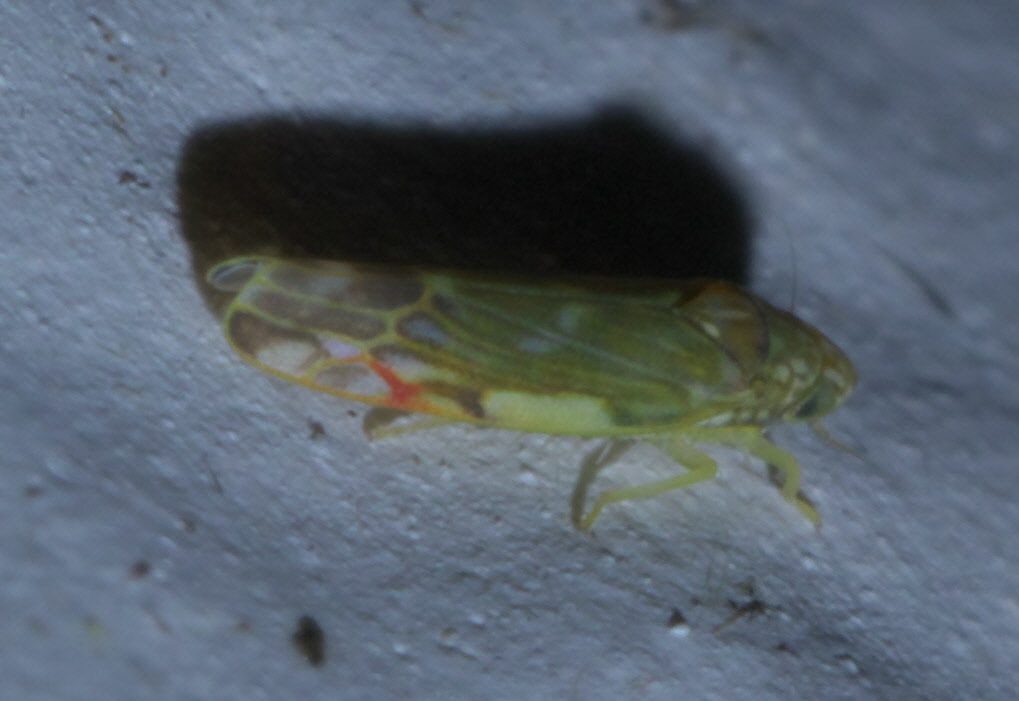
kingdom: Animalia
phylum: Arthropoda
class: Insecta
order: Hemiptera
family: Cicadellidae
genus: Erasmoneura
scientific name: Erasmoneura vulnerata
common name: The wounded leafhopper
